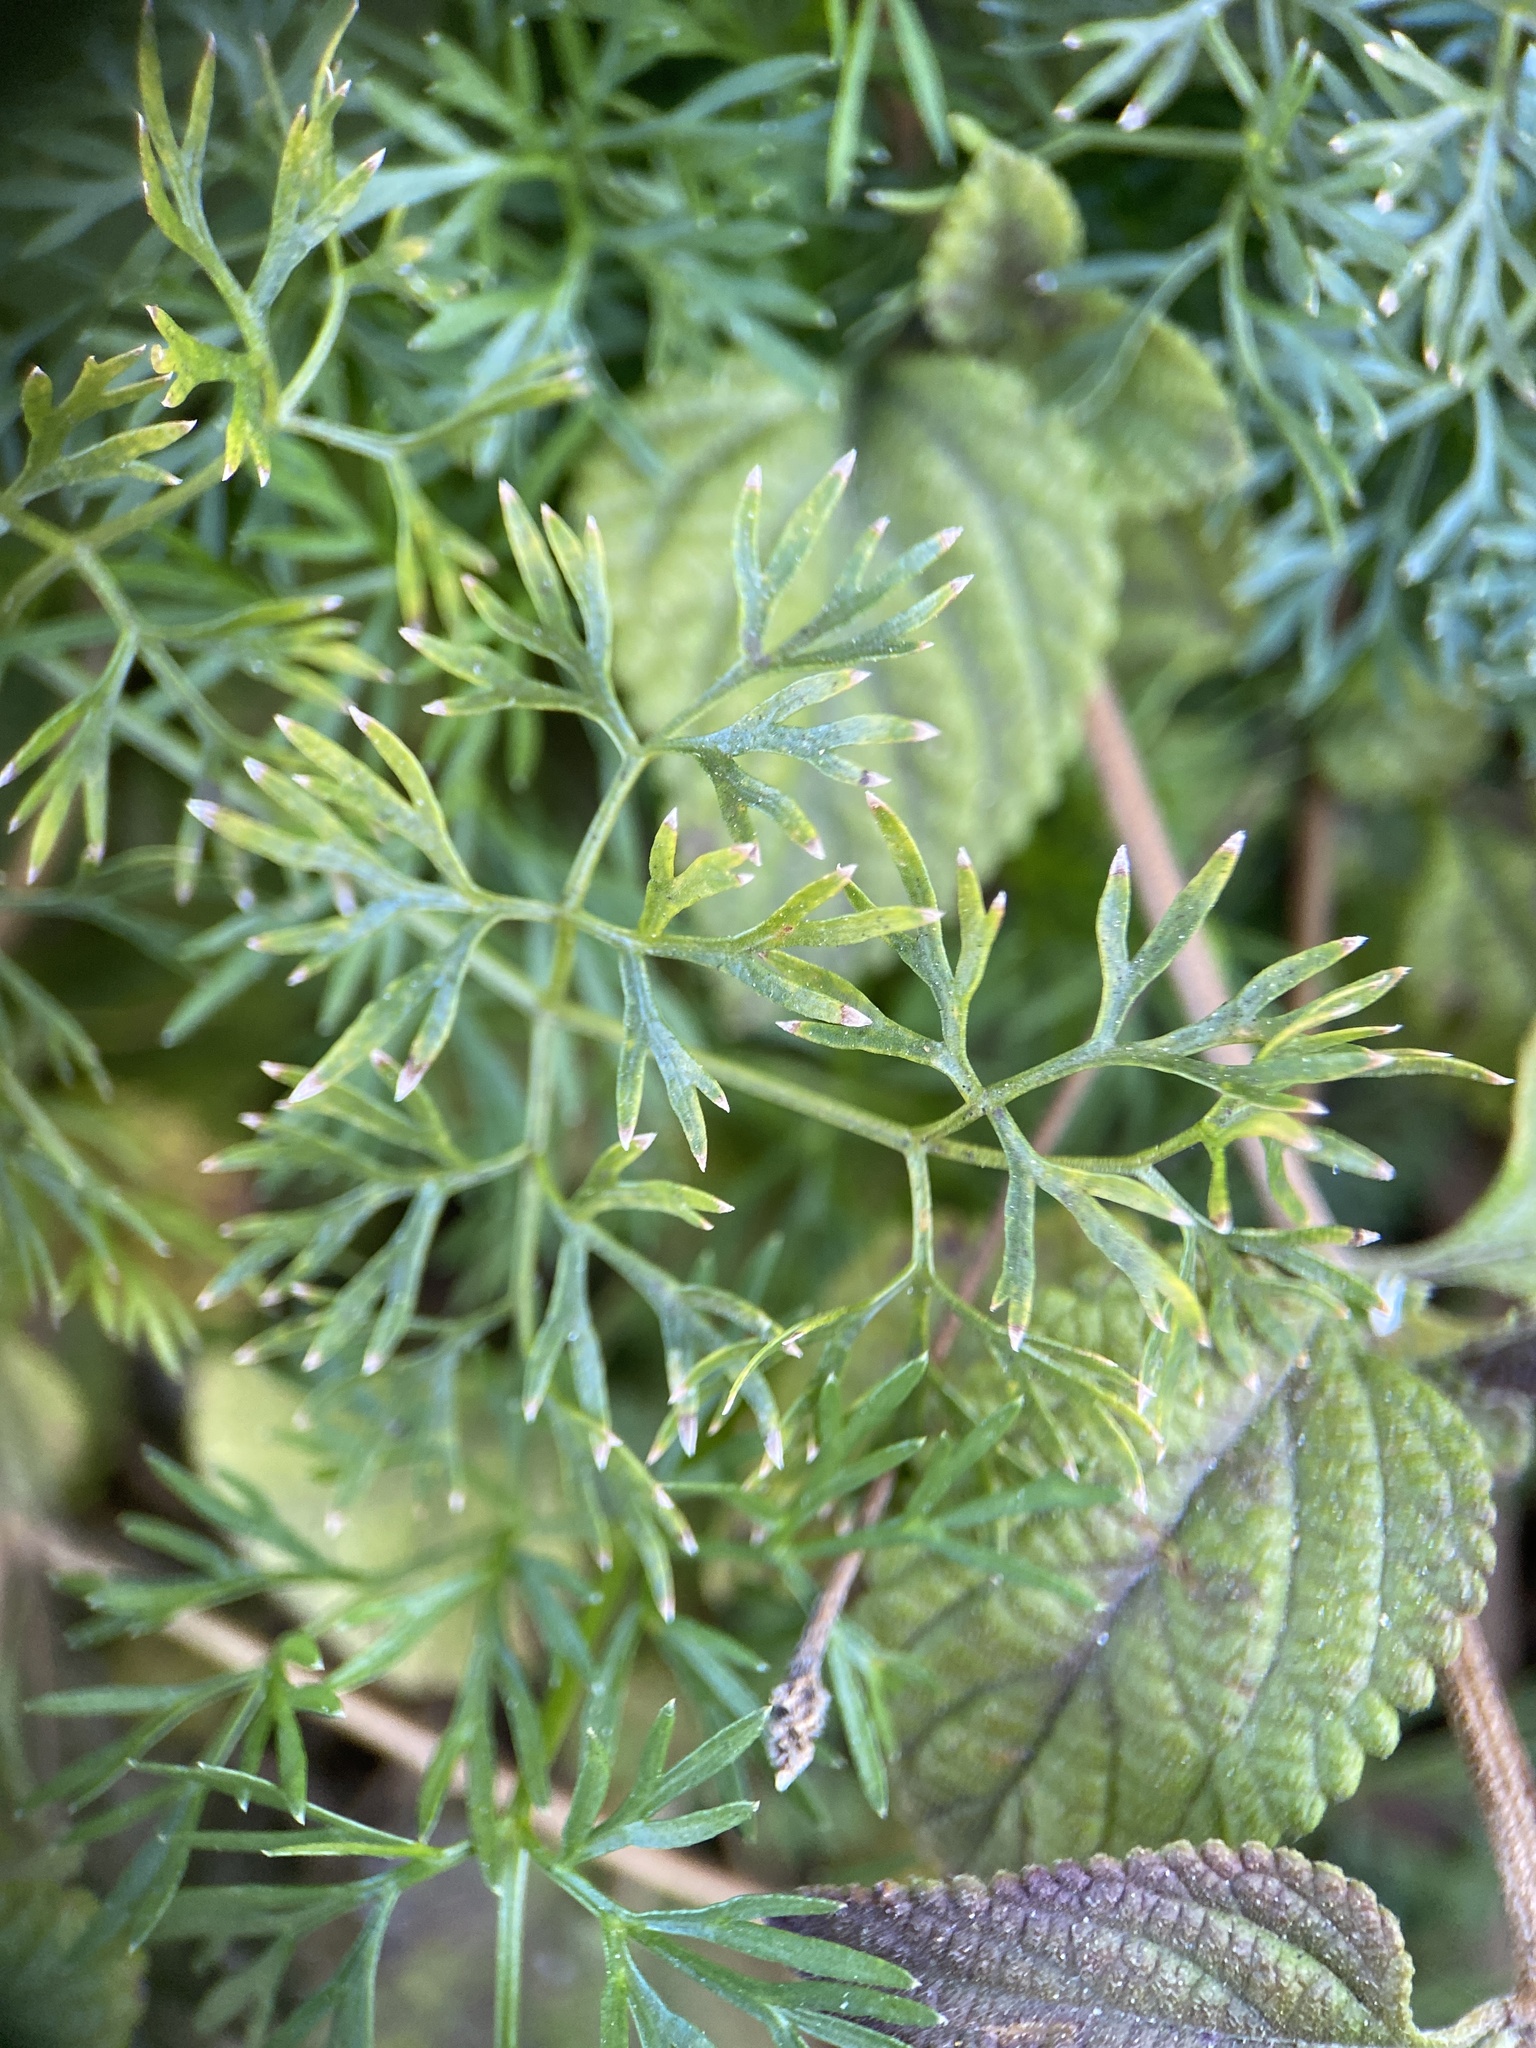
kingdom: Plantae
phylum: Tracheophyta
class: Magnoliopsida
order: Apiales
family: Apiaceae
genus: Cyclospermum
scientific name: Cyclospermum leptophyllum
